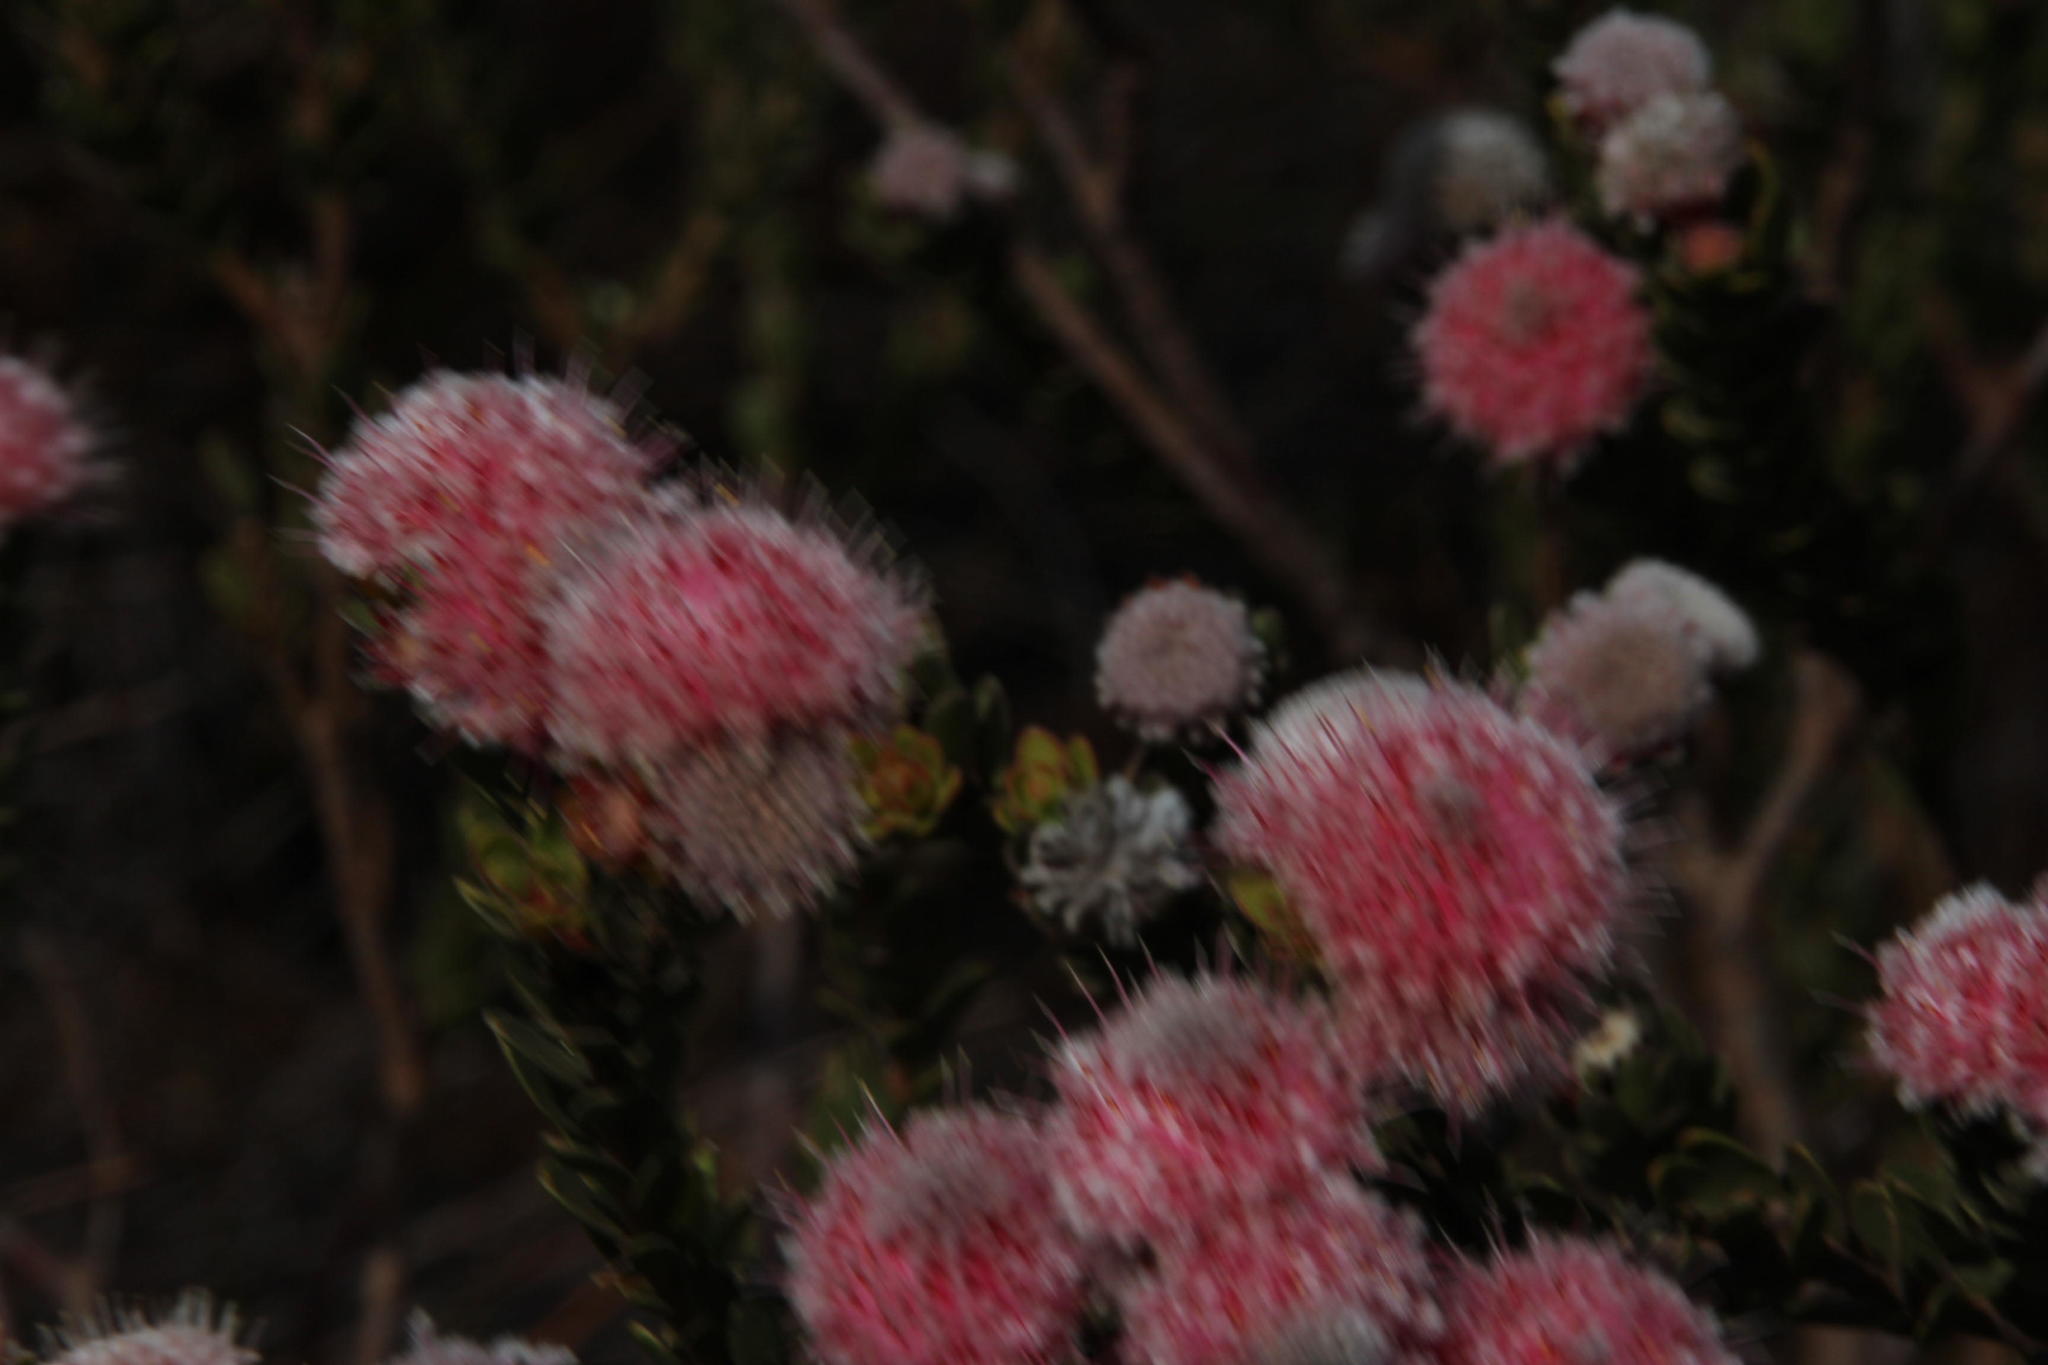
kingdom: Plantae
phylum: Tracheophyta
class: Magnoliopsida
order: Proteales
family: Proteaceae
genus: Diastella
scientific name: Diastella thymelaeoides
